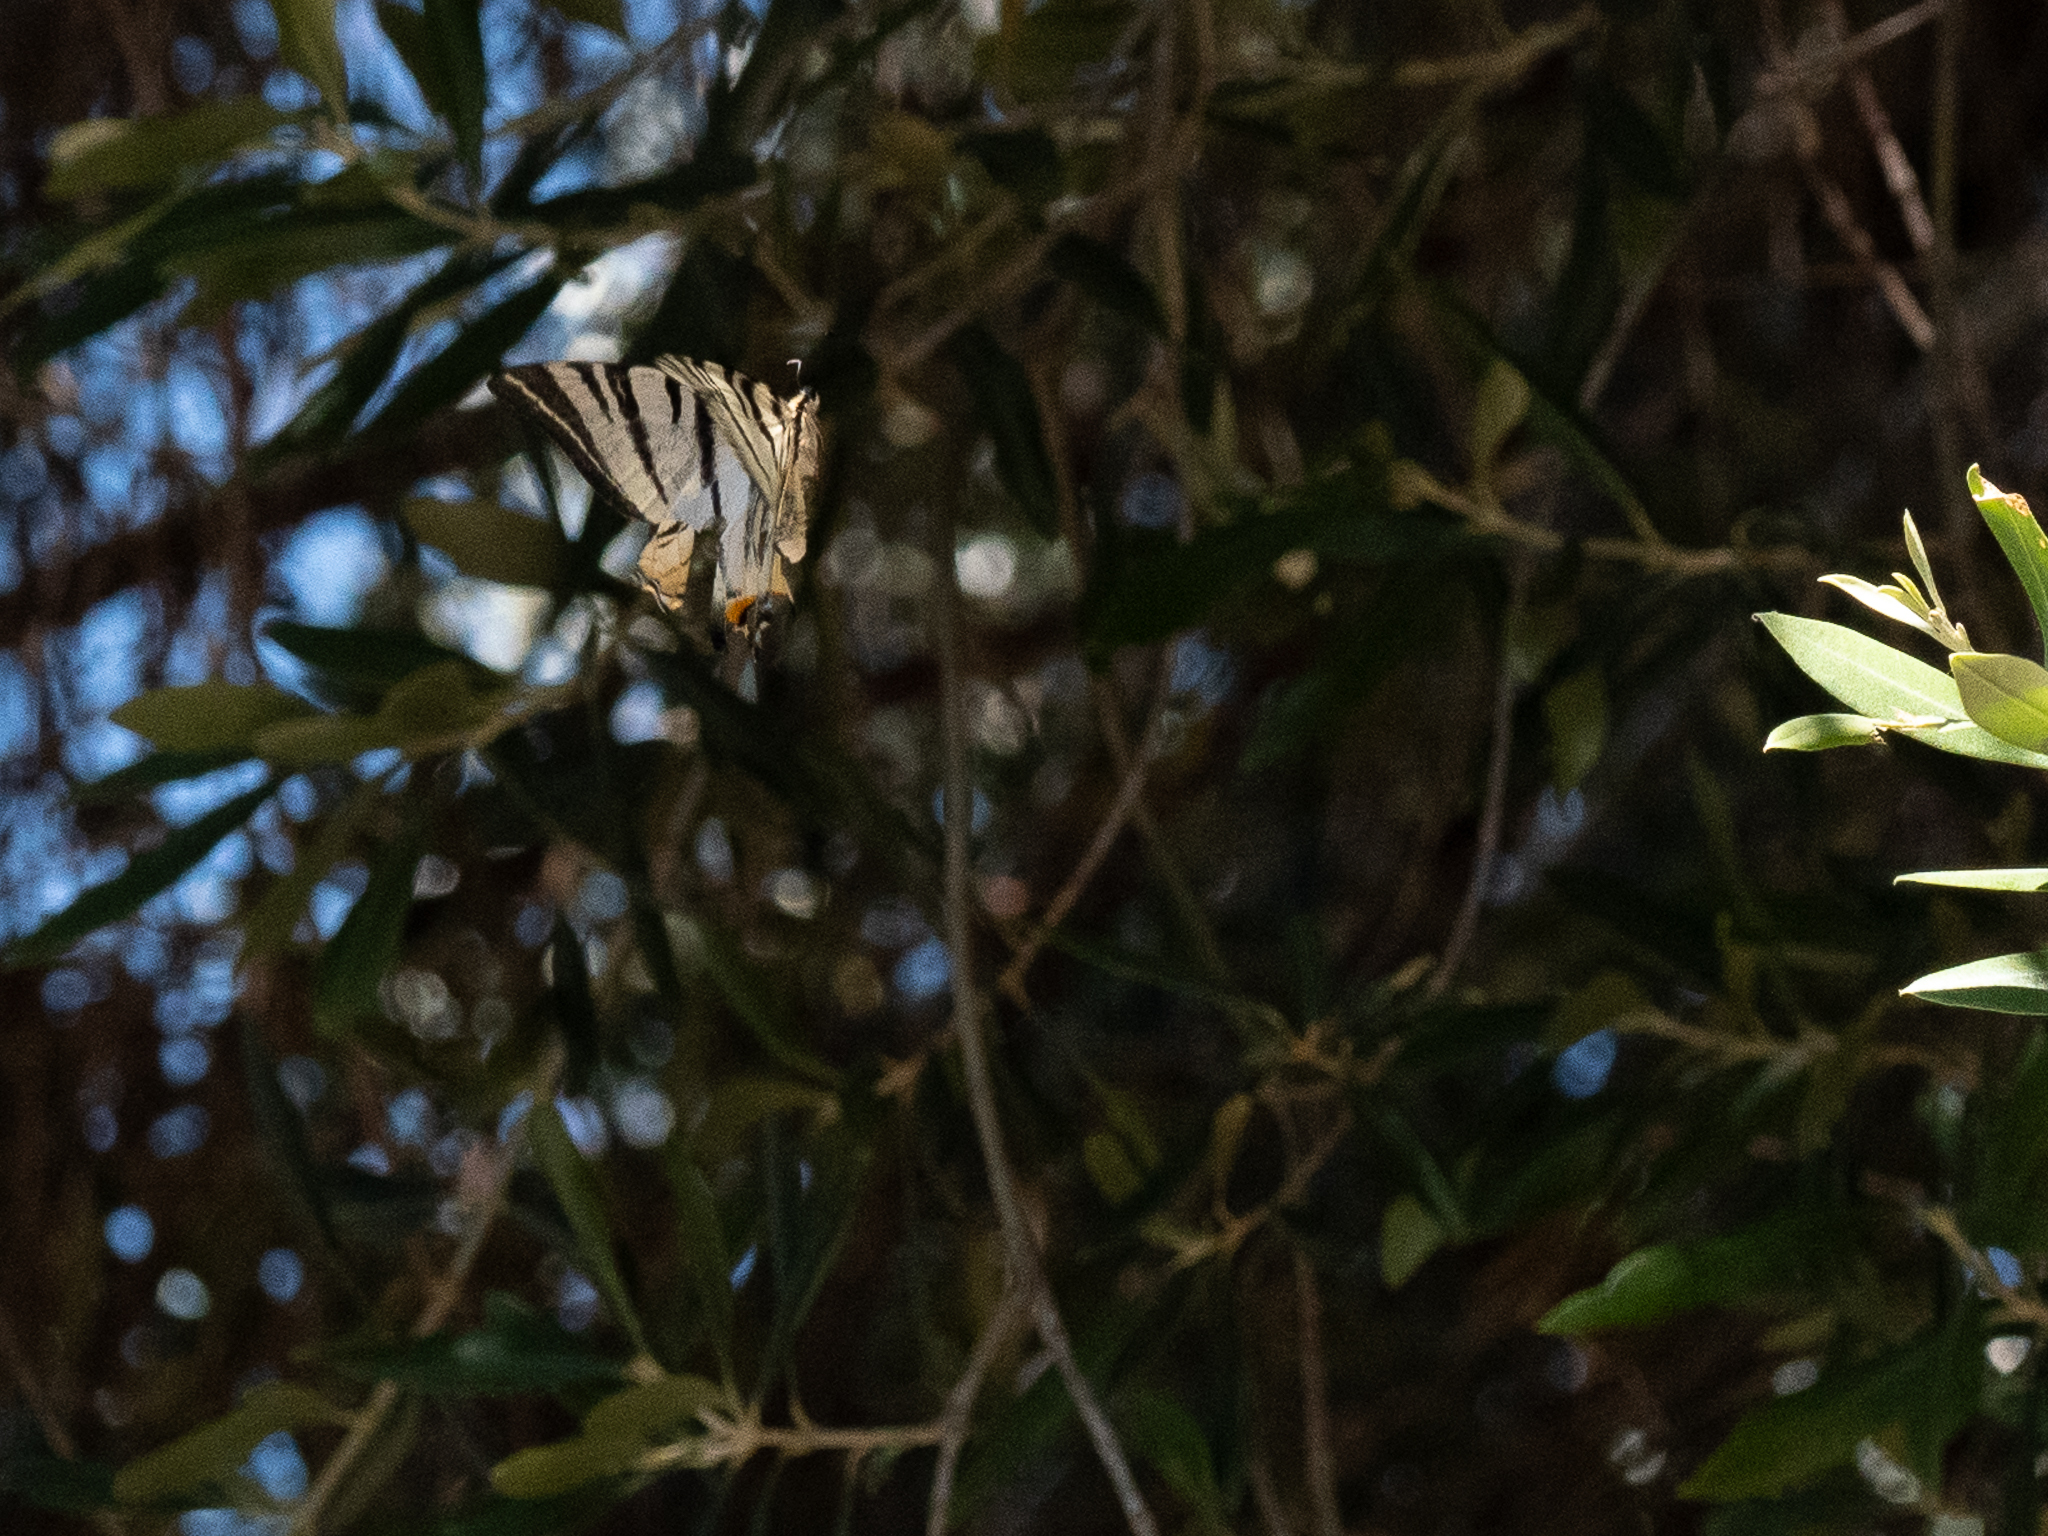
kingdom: Animalia
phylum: Arthropoda
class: Insecta
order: Lepidoptera
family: Papilionidae
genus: Iphiclides
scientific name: Iphiclides podalirius
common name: Scarce swallowtail
